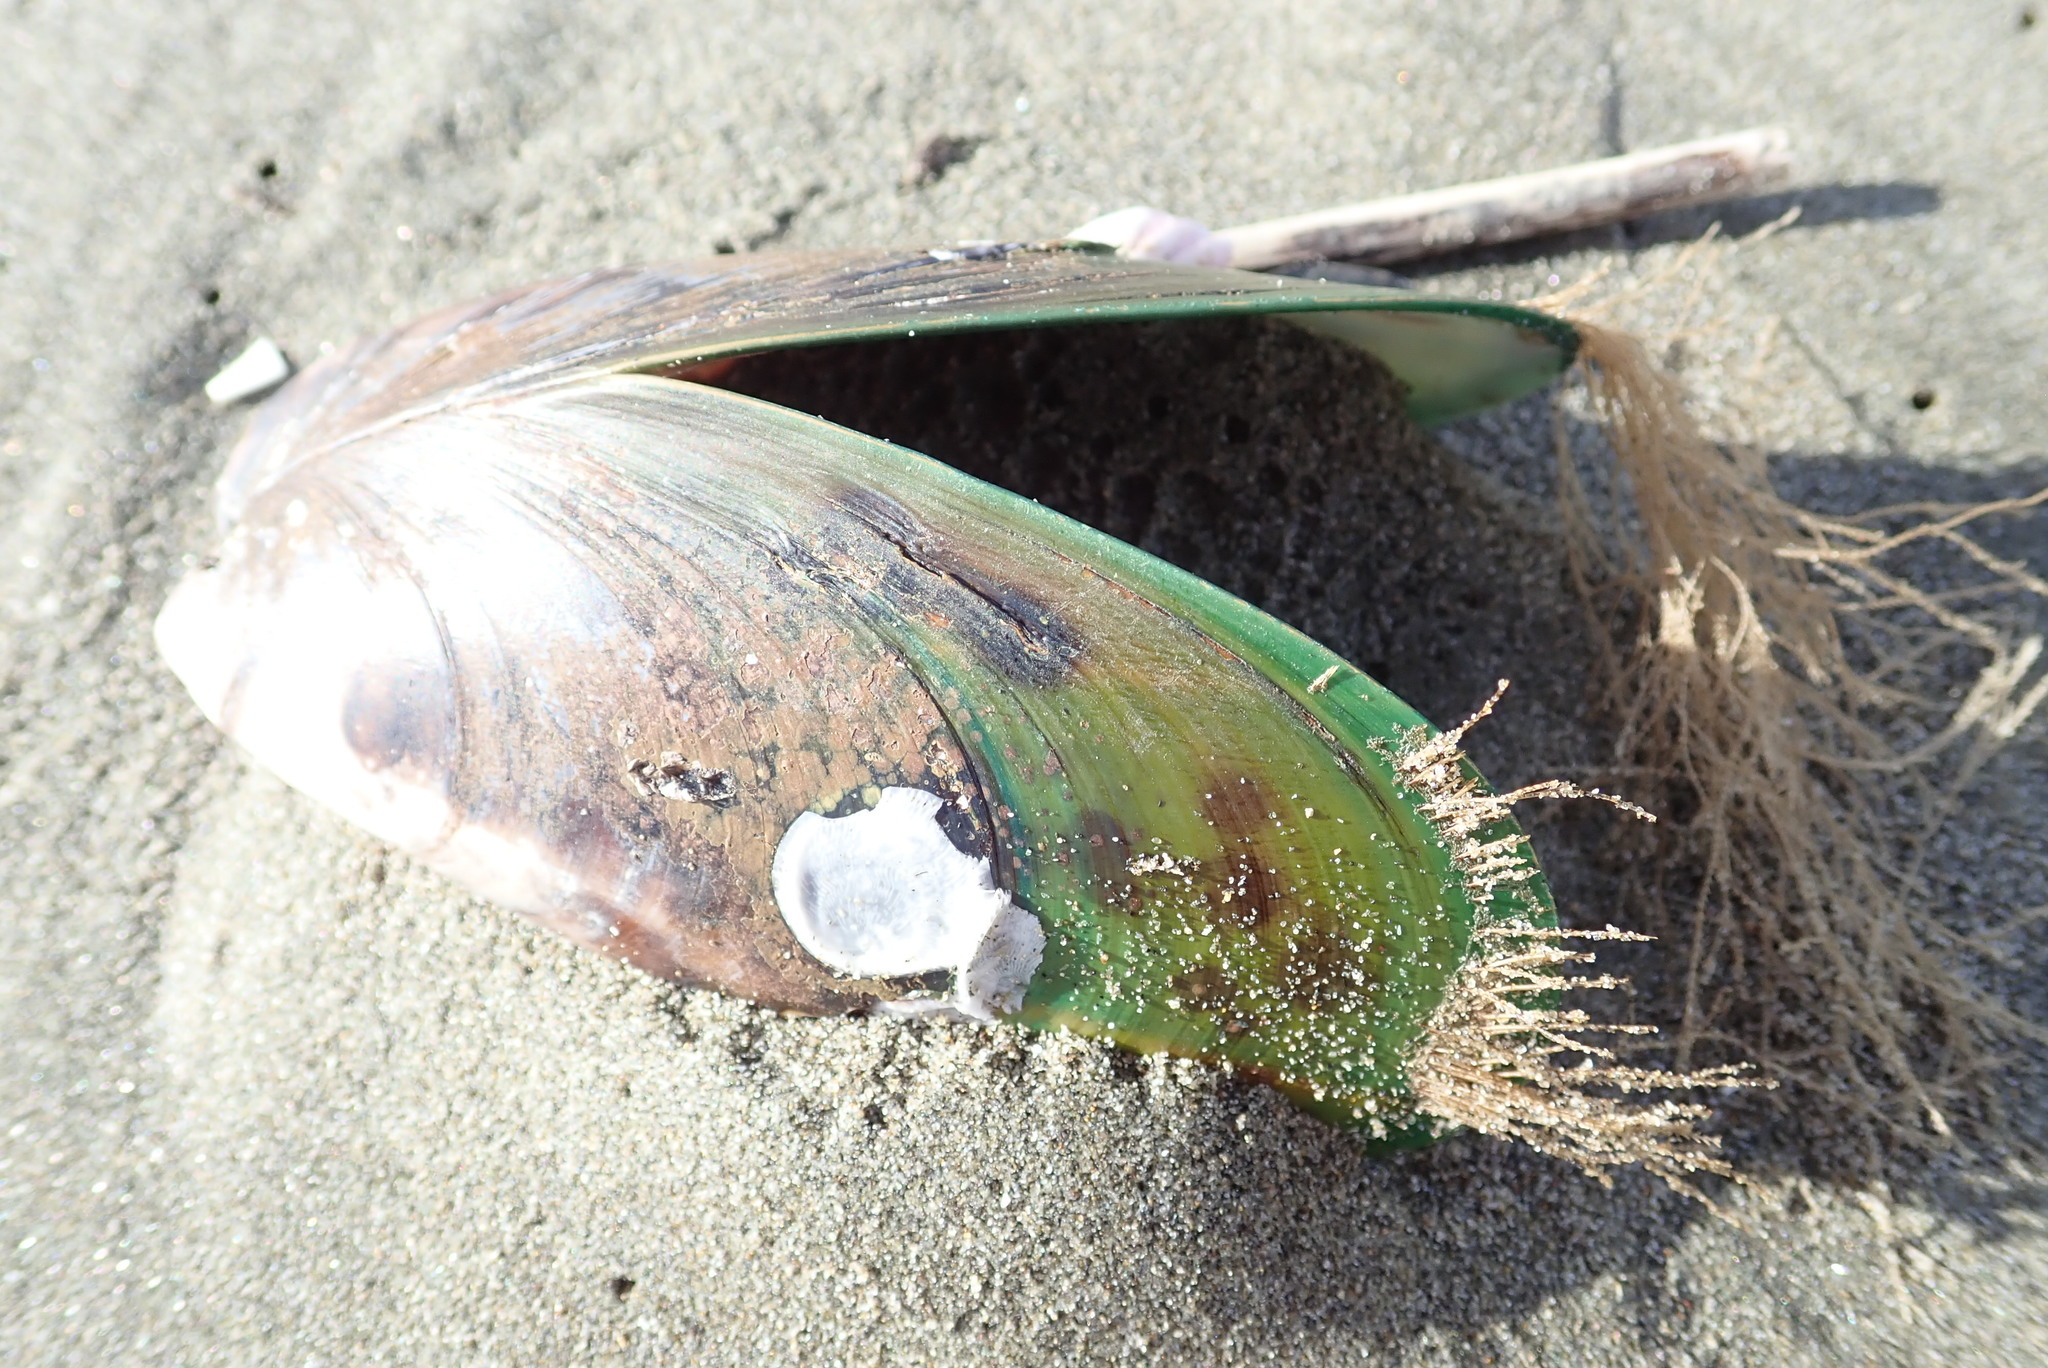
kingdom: Animalia
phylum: Mollusca
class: Bivalvia
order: Mytilida
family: Mytilidae
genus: Perna
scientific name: Perna canaliculus
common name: New zealand greenshelltm
